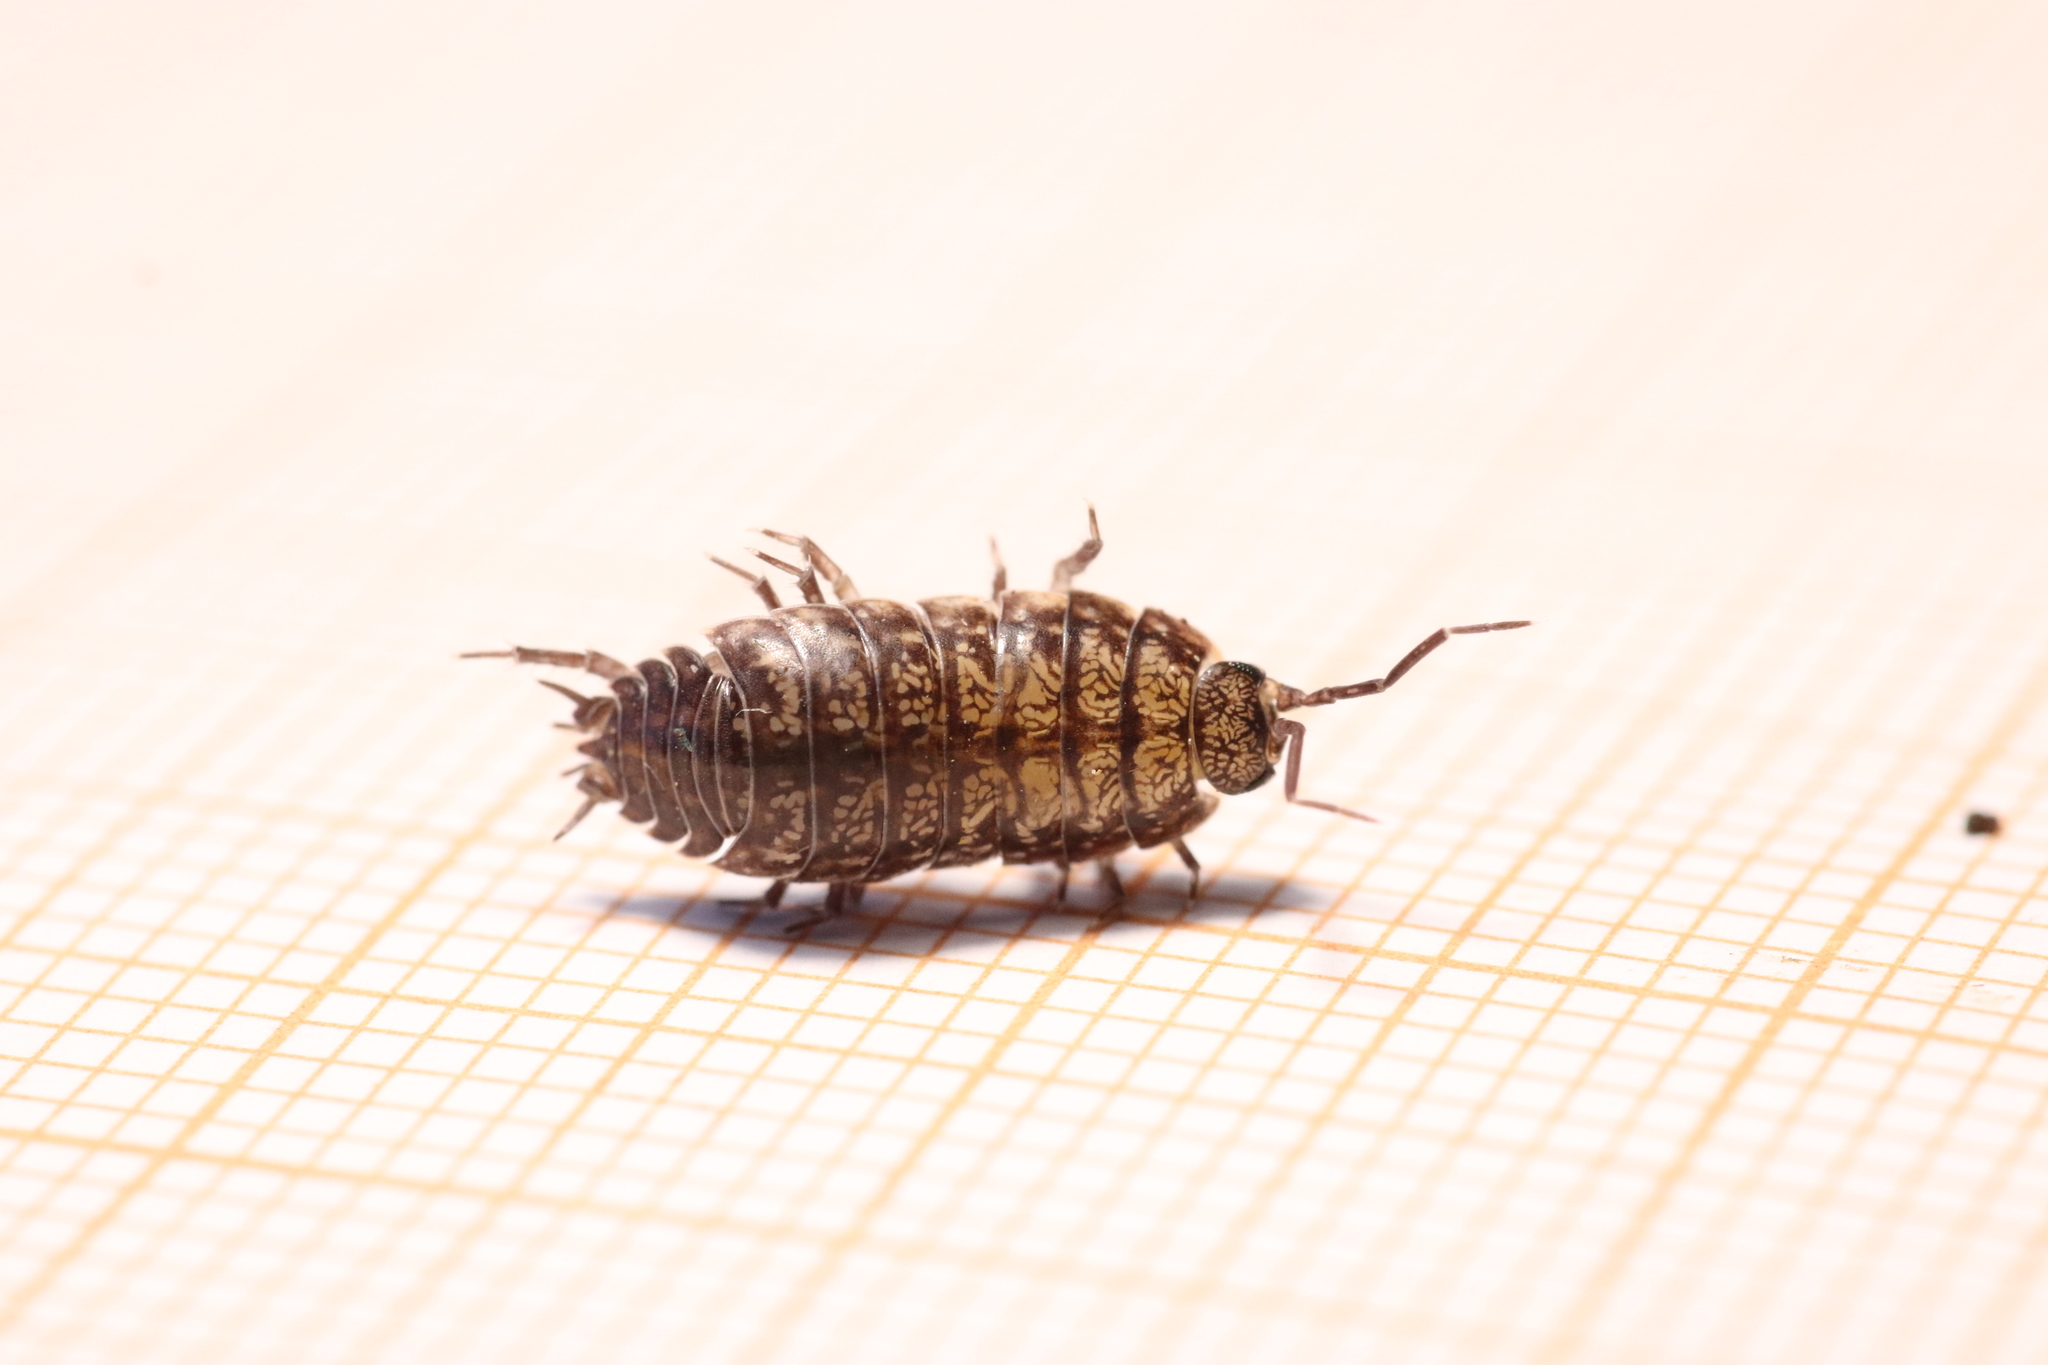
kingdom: Animalia
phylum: Arthropoda
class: Malacostraca
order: Isopoda
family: Porcellionidae
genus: Porcellio
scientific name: Porcellio gallicus
